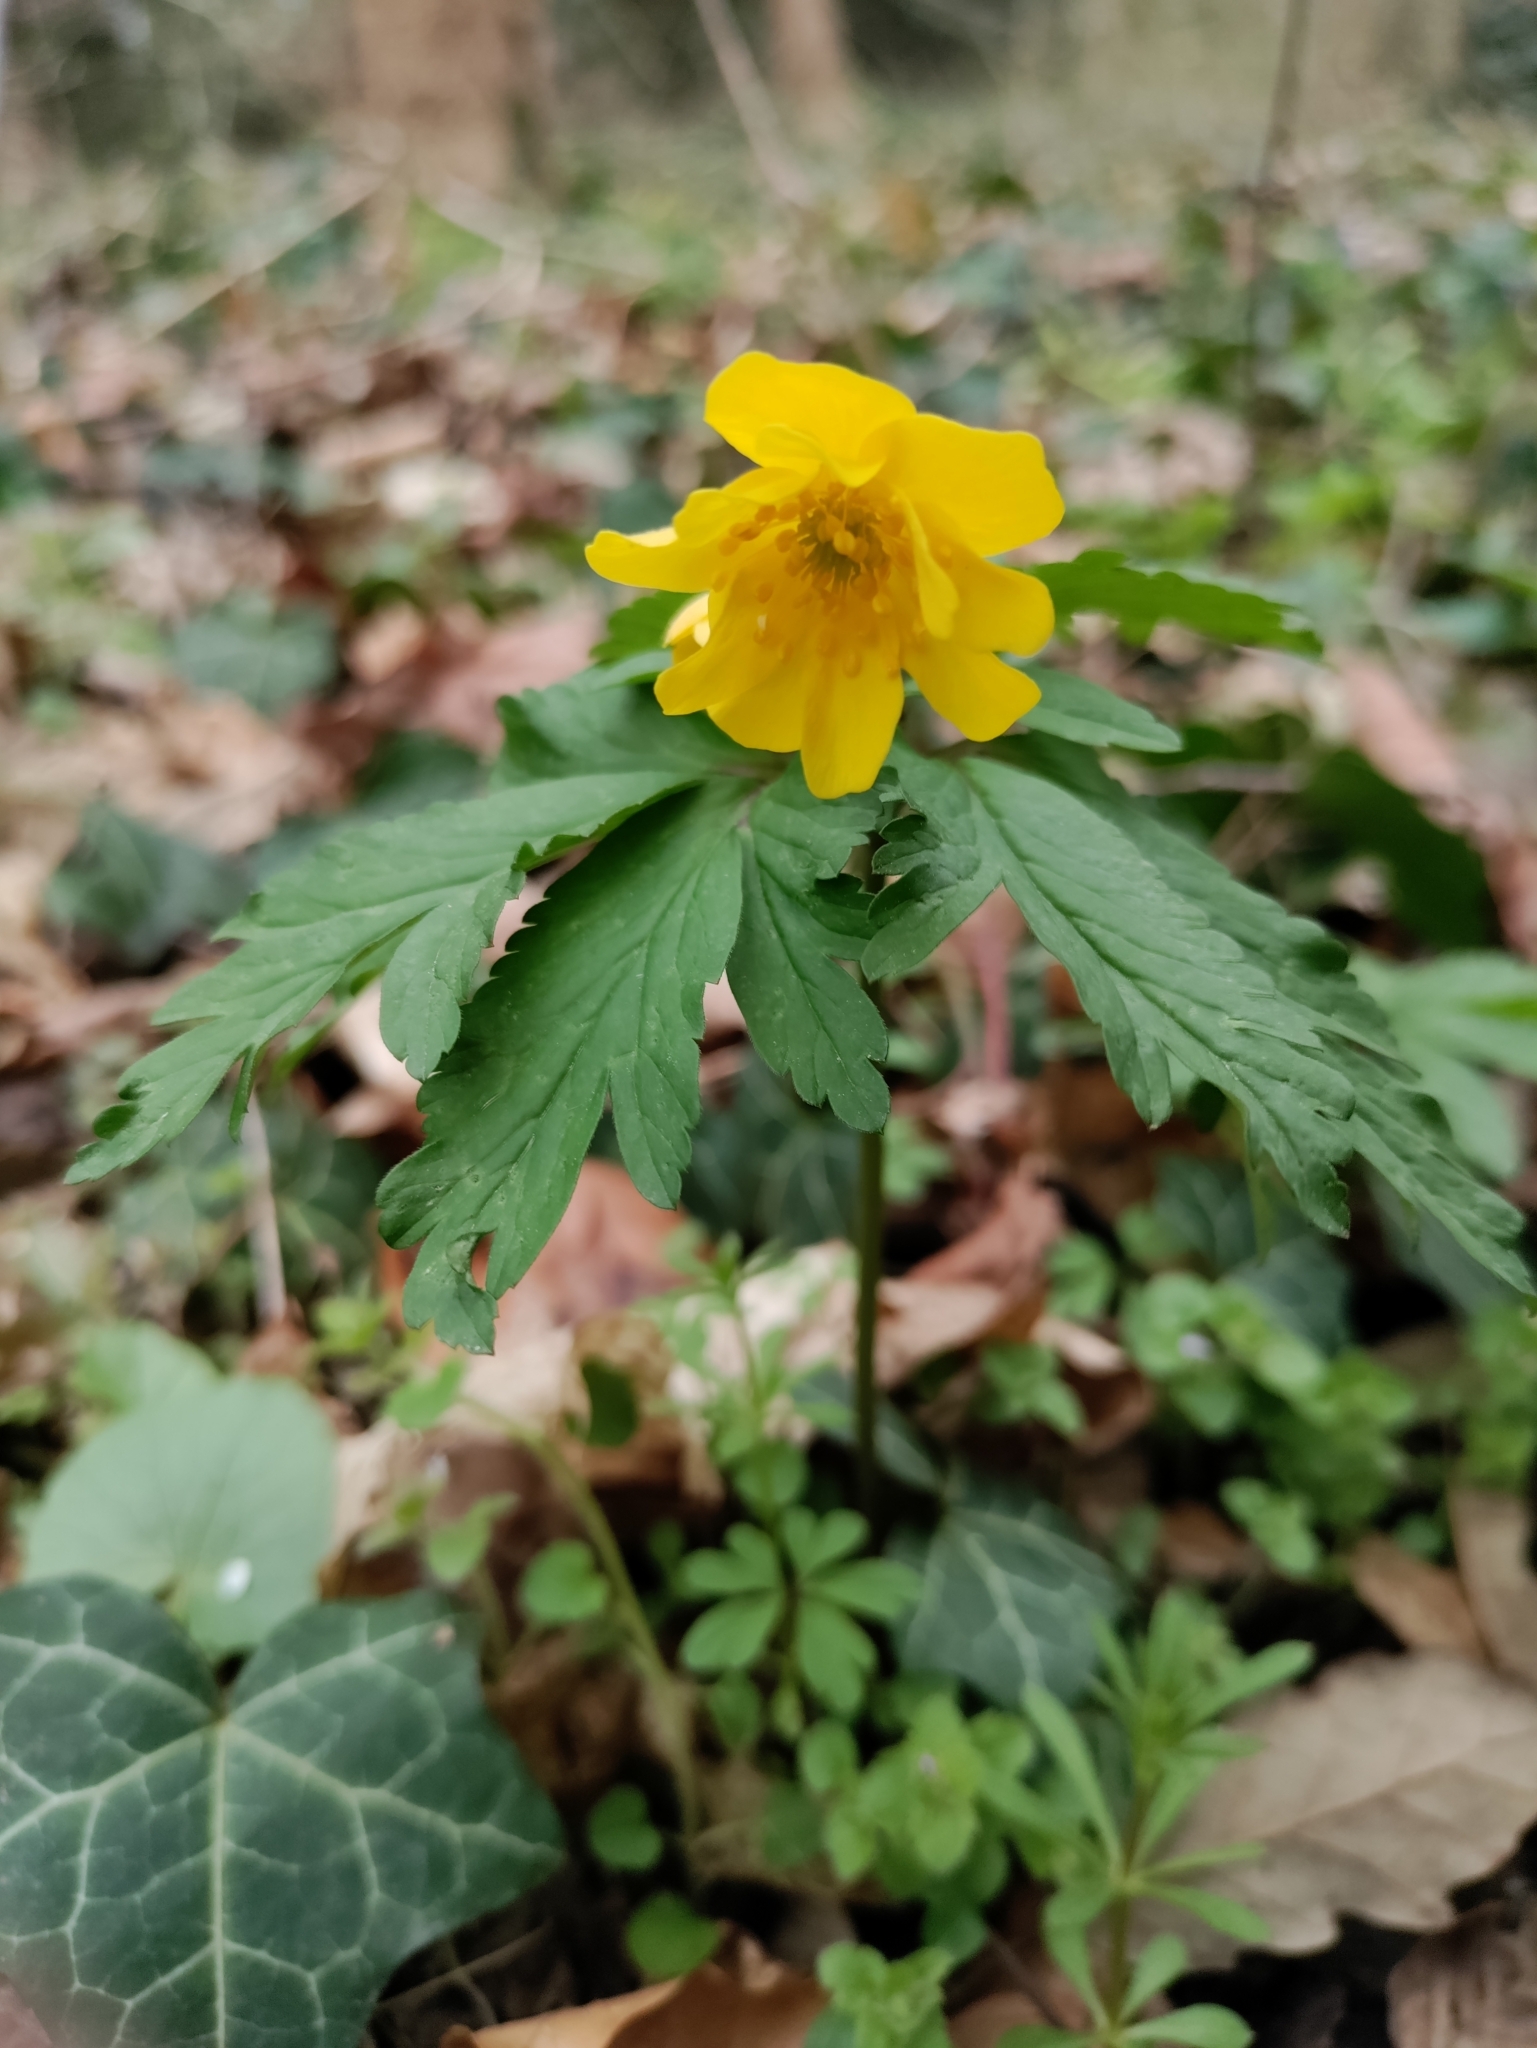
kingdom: Plantae
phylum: Tracheophyta
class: Magnoliopsida
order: Ranunculales
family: Ranunculaceae
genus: Anemone
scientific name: Anemone ranunculoides
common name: Yellow anemone
